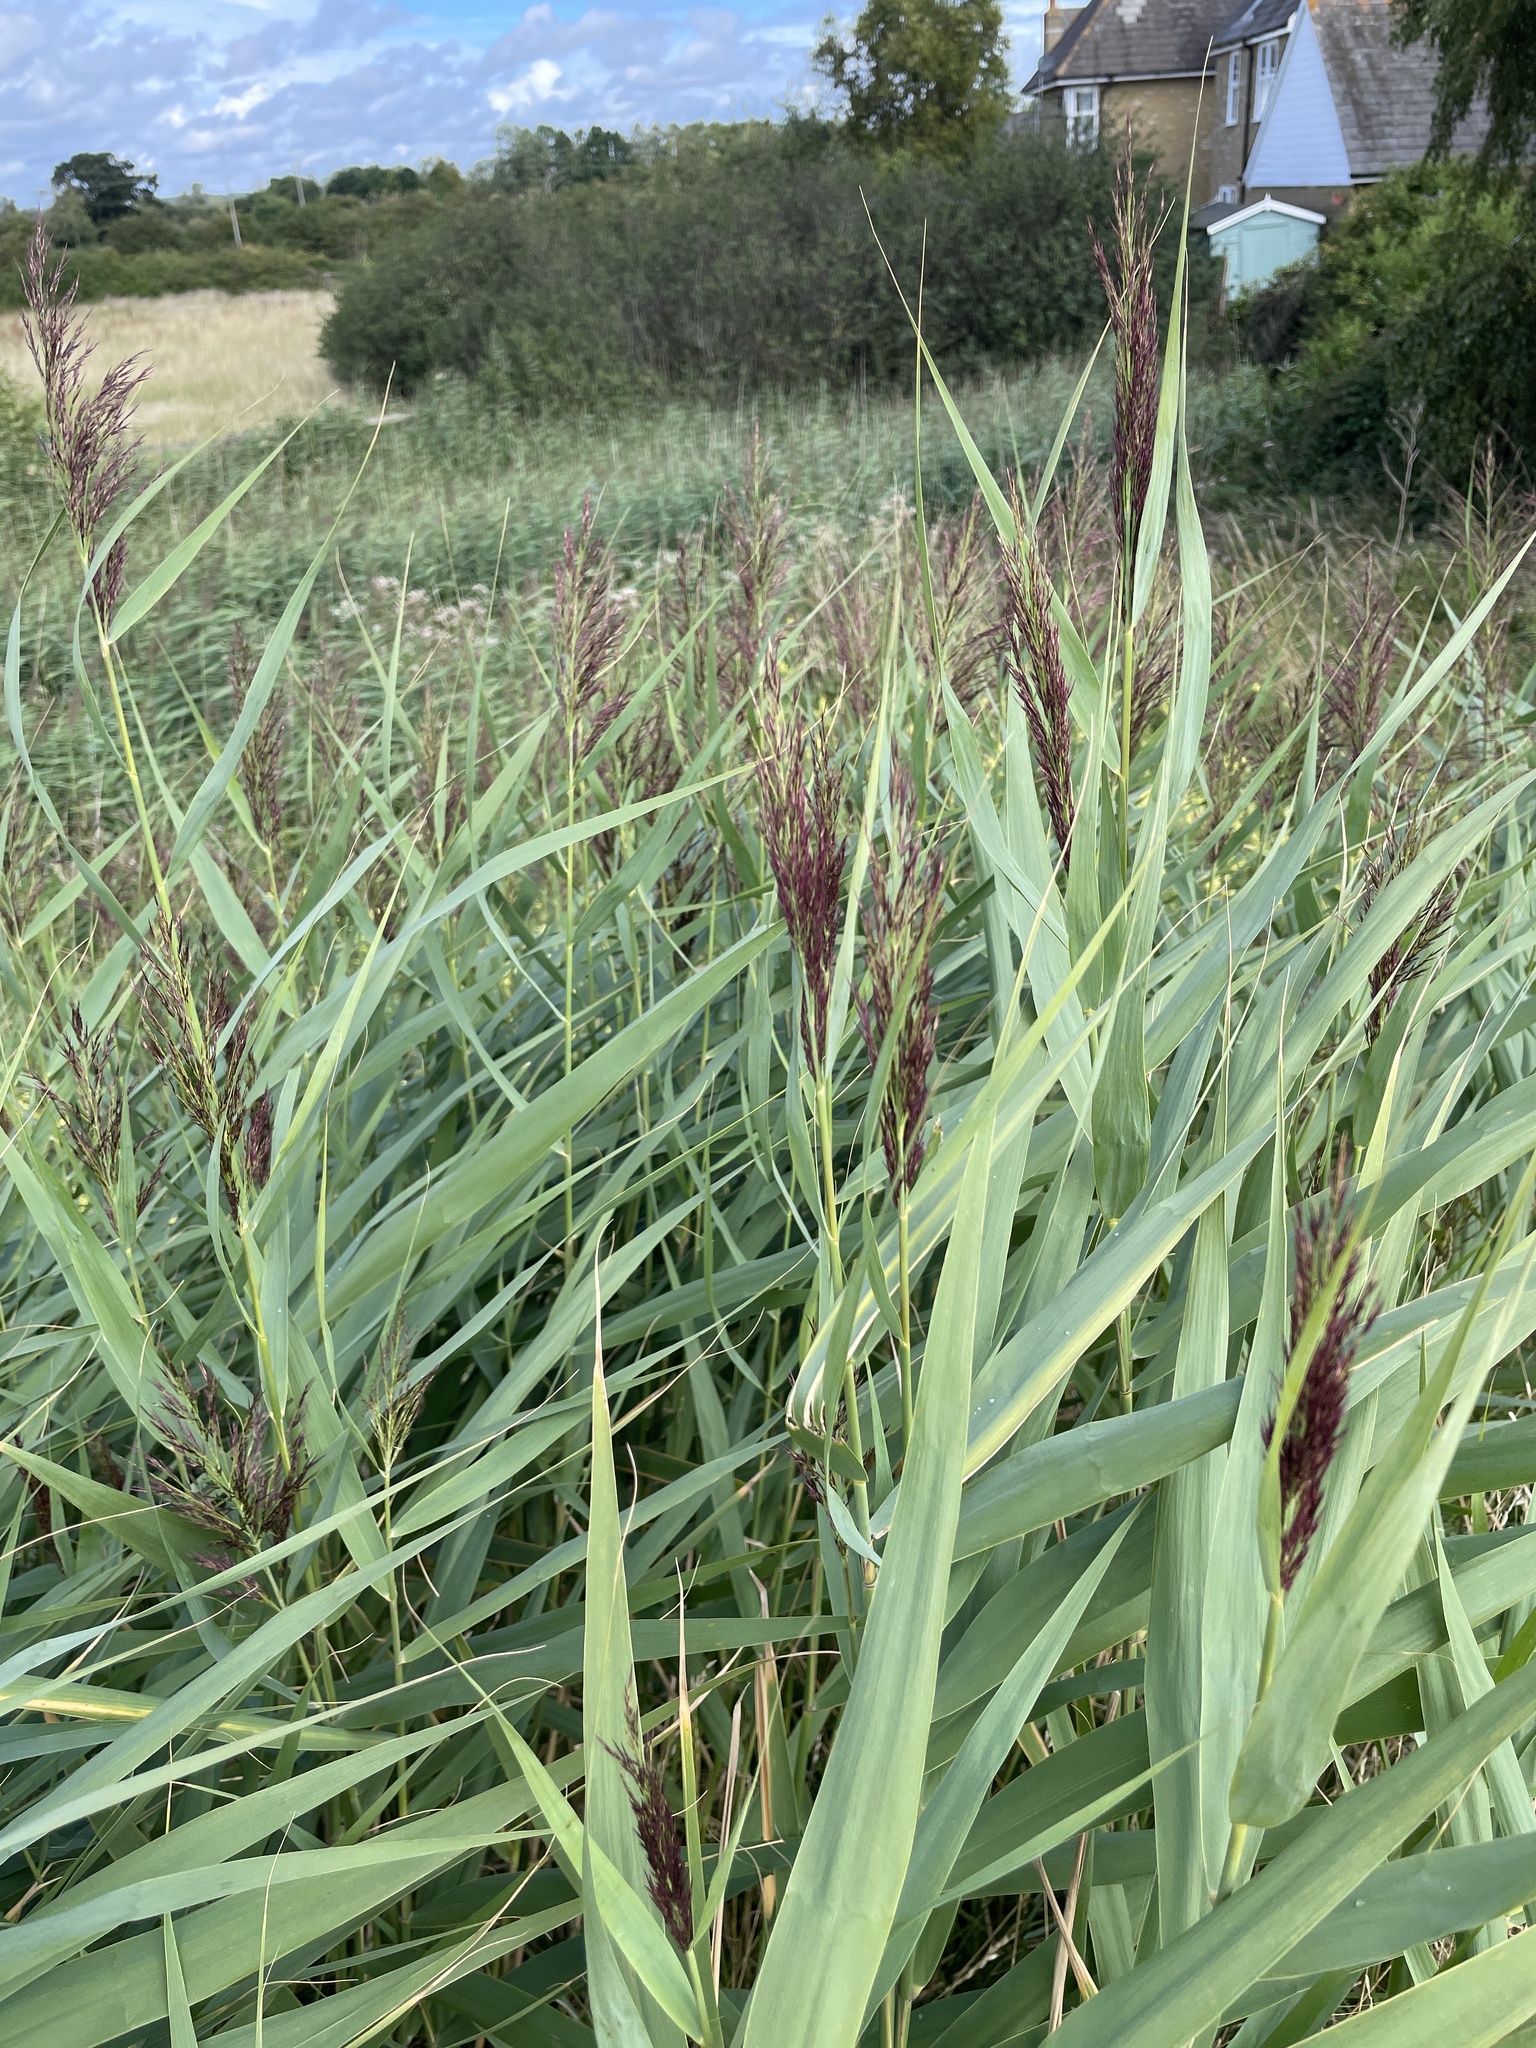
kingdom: Plantae
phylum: Tracheophyta
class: Liliopsida
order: Poales
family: Poaceae
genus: Phragmites
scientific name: Phragmites australis
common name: Common reed
